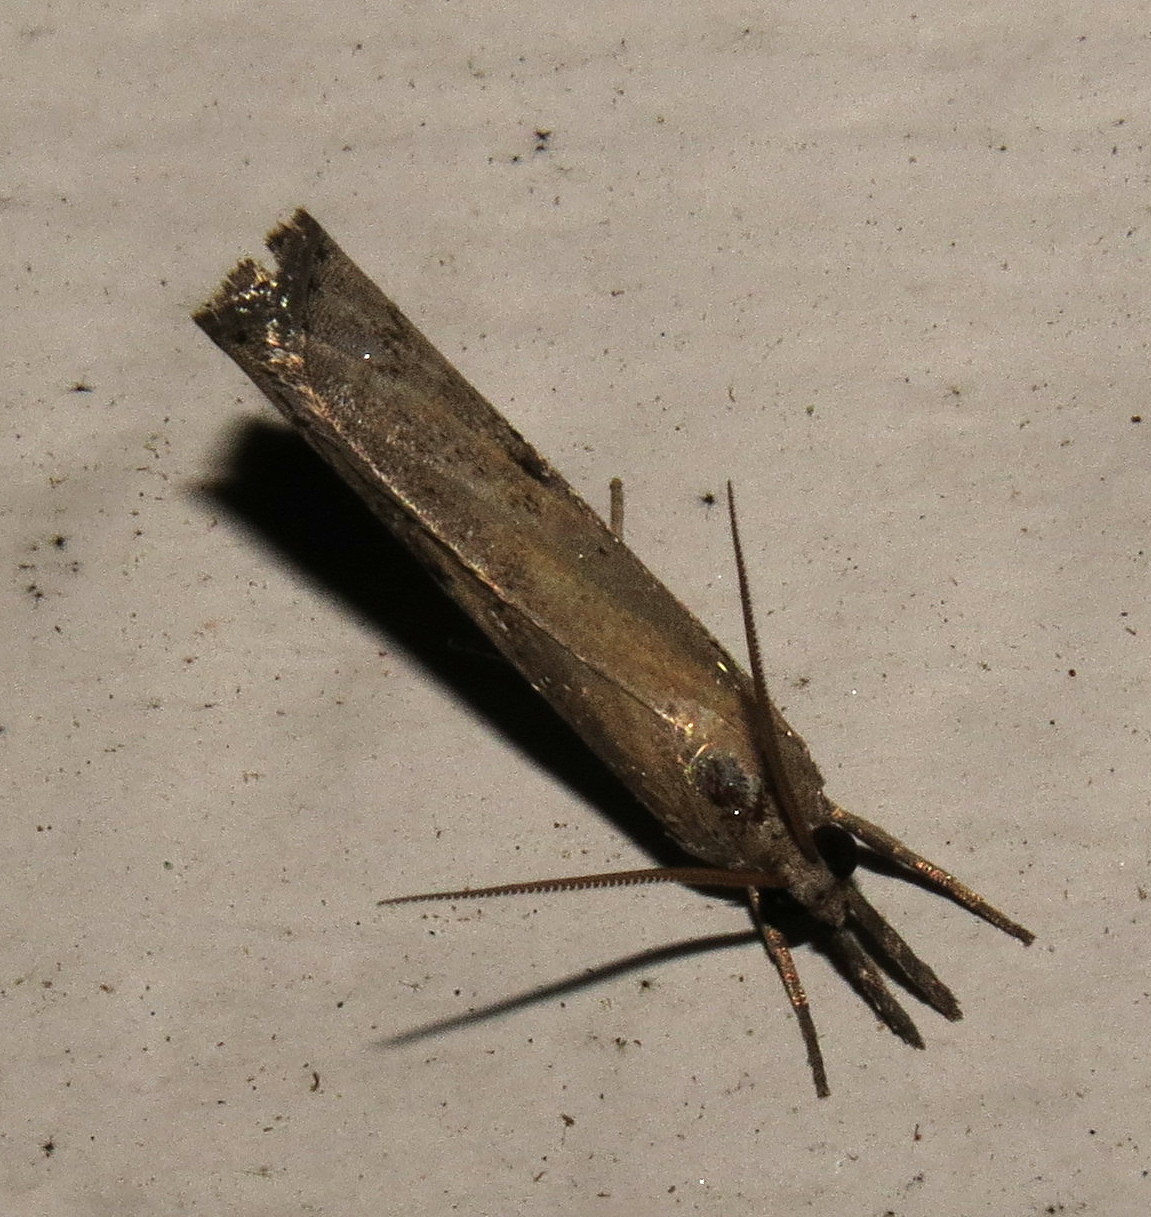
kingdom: Animalia
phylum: Arthropoda
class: Insecta
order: Lepidoptera
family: Crambidae
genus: Fissicrambus
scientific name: Fissicrambus mutabilis
